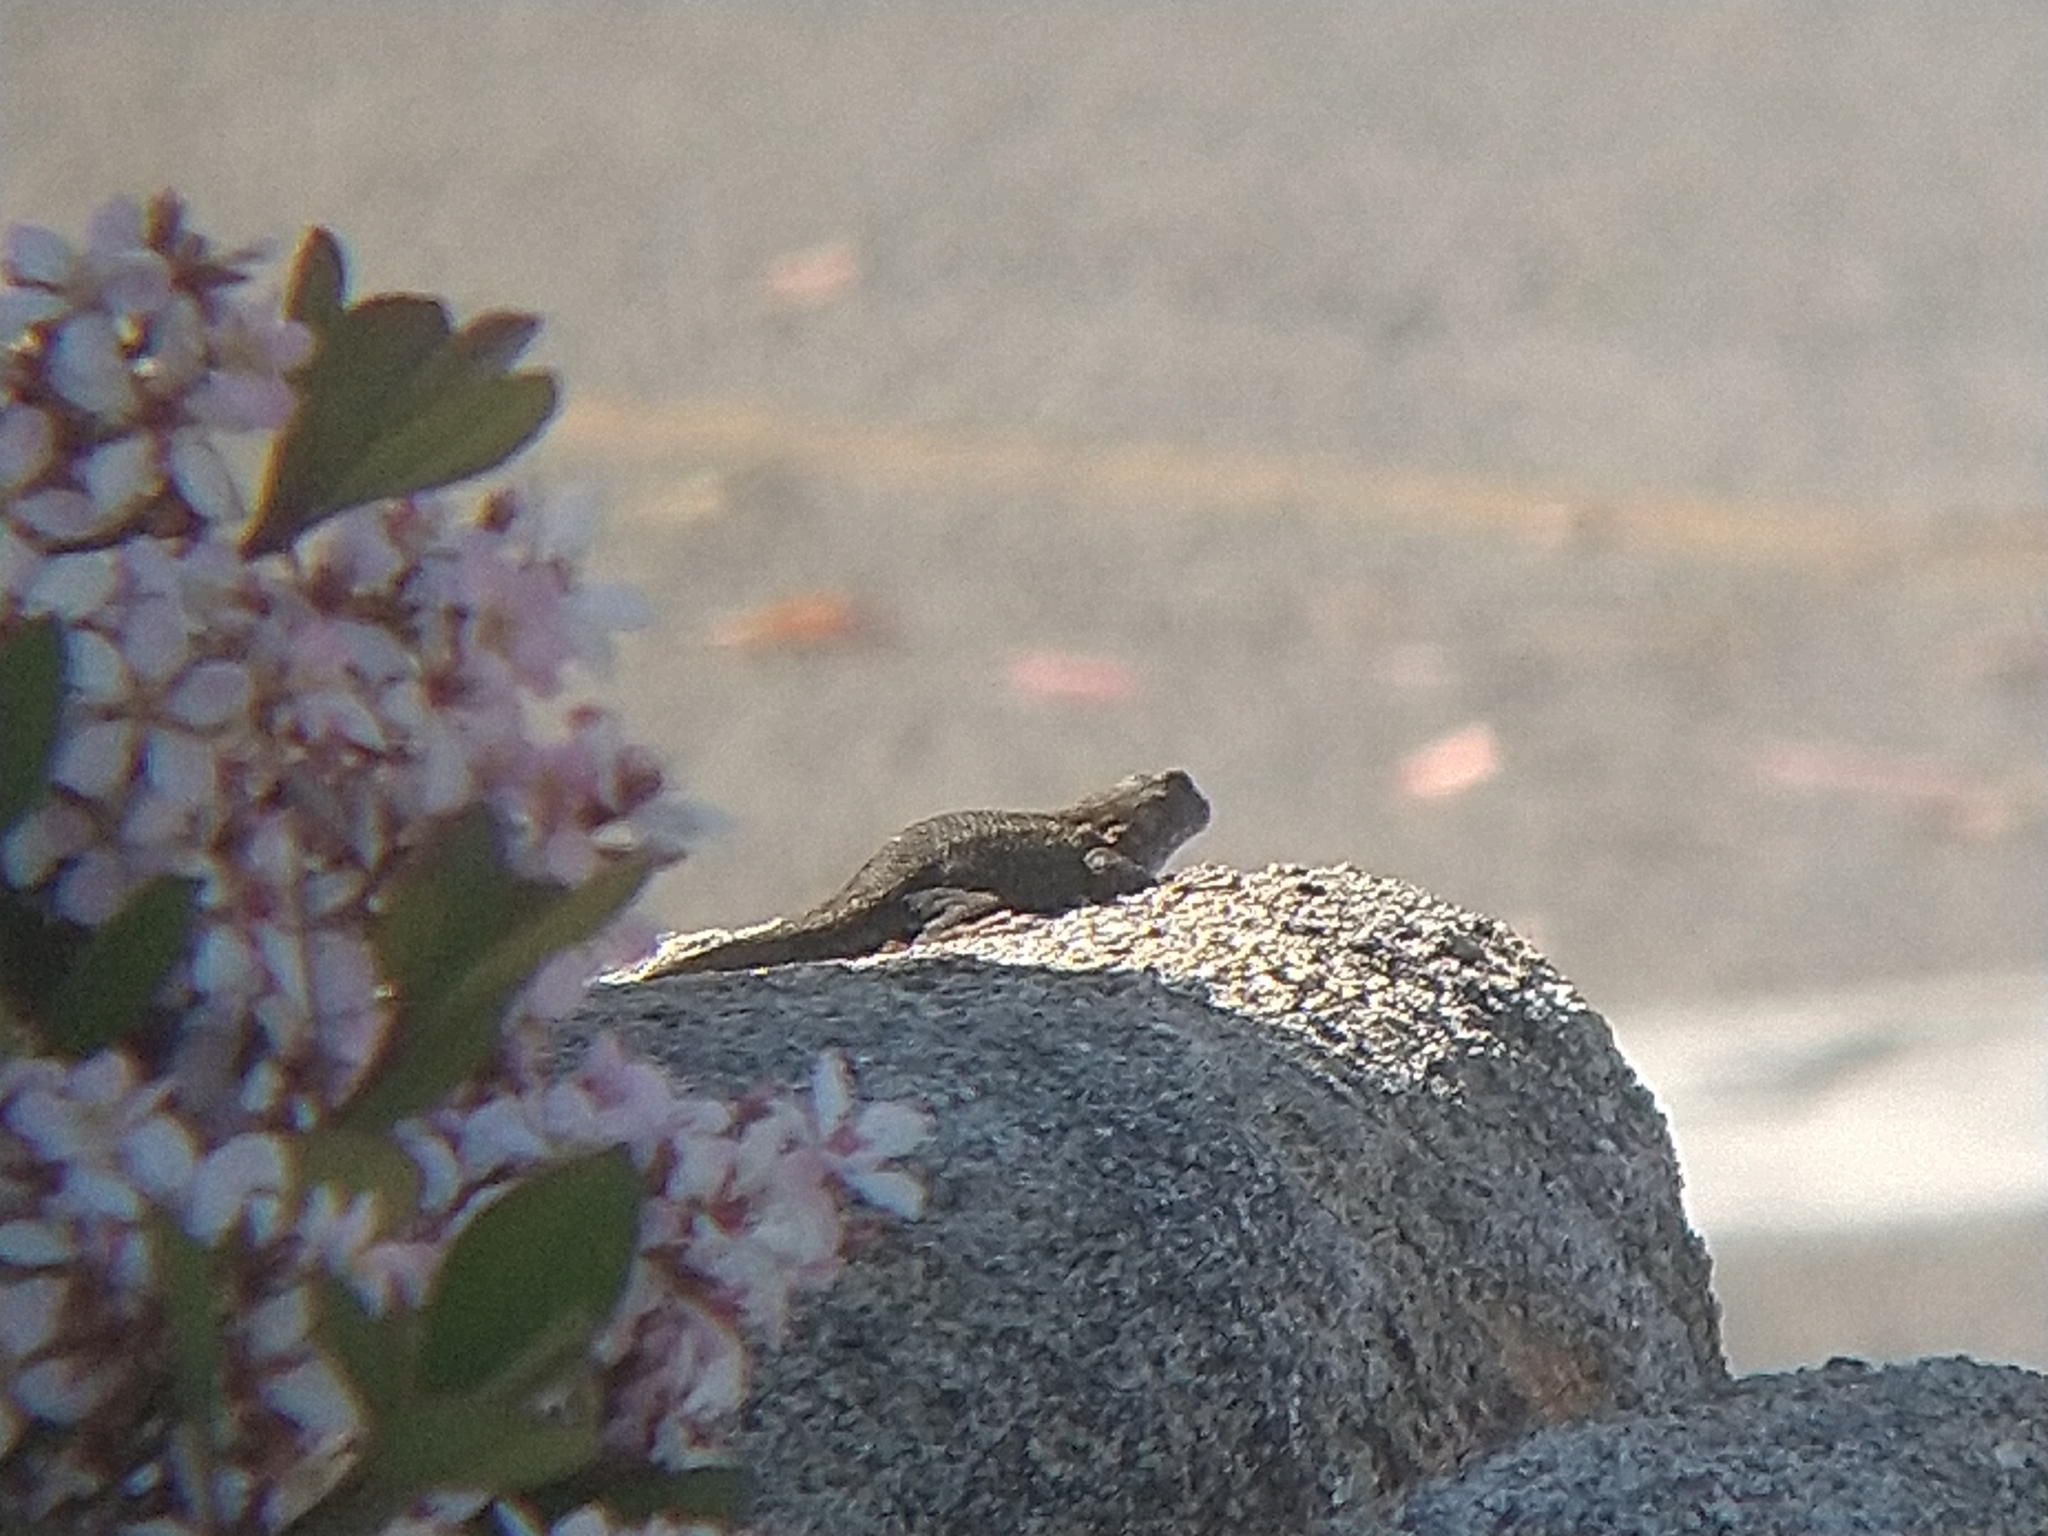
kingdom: Animalia
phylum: Chordata
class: Squamata
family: Phrynosomatidae
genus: Sceloporus
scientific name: Sceloporus occidentalis
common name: Western fence lizard
